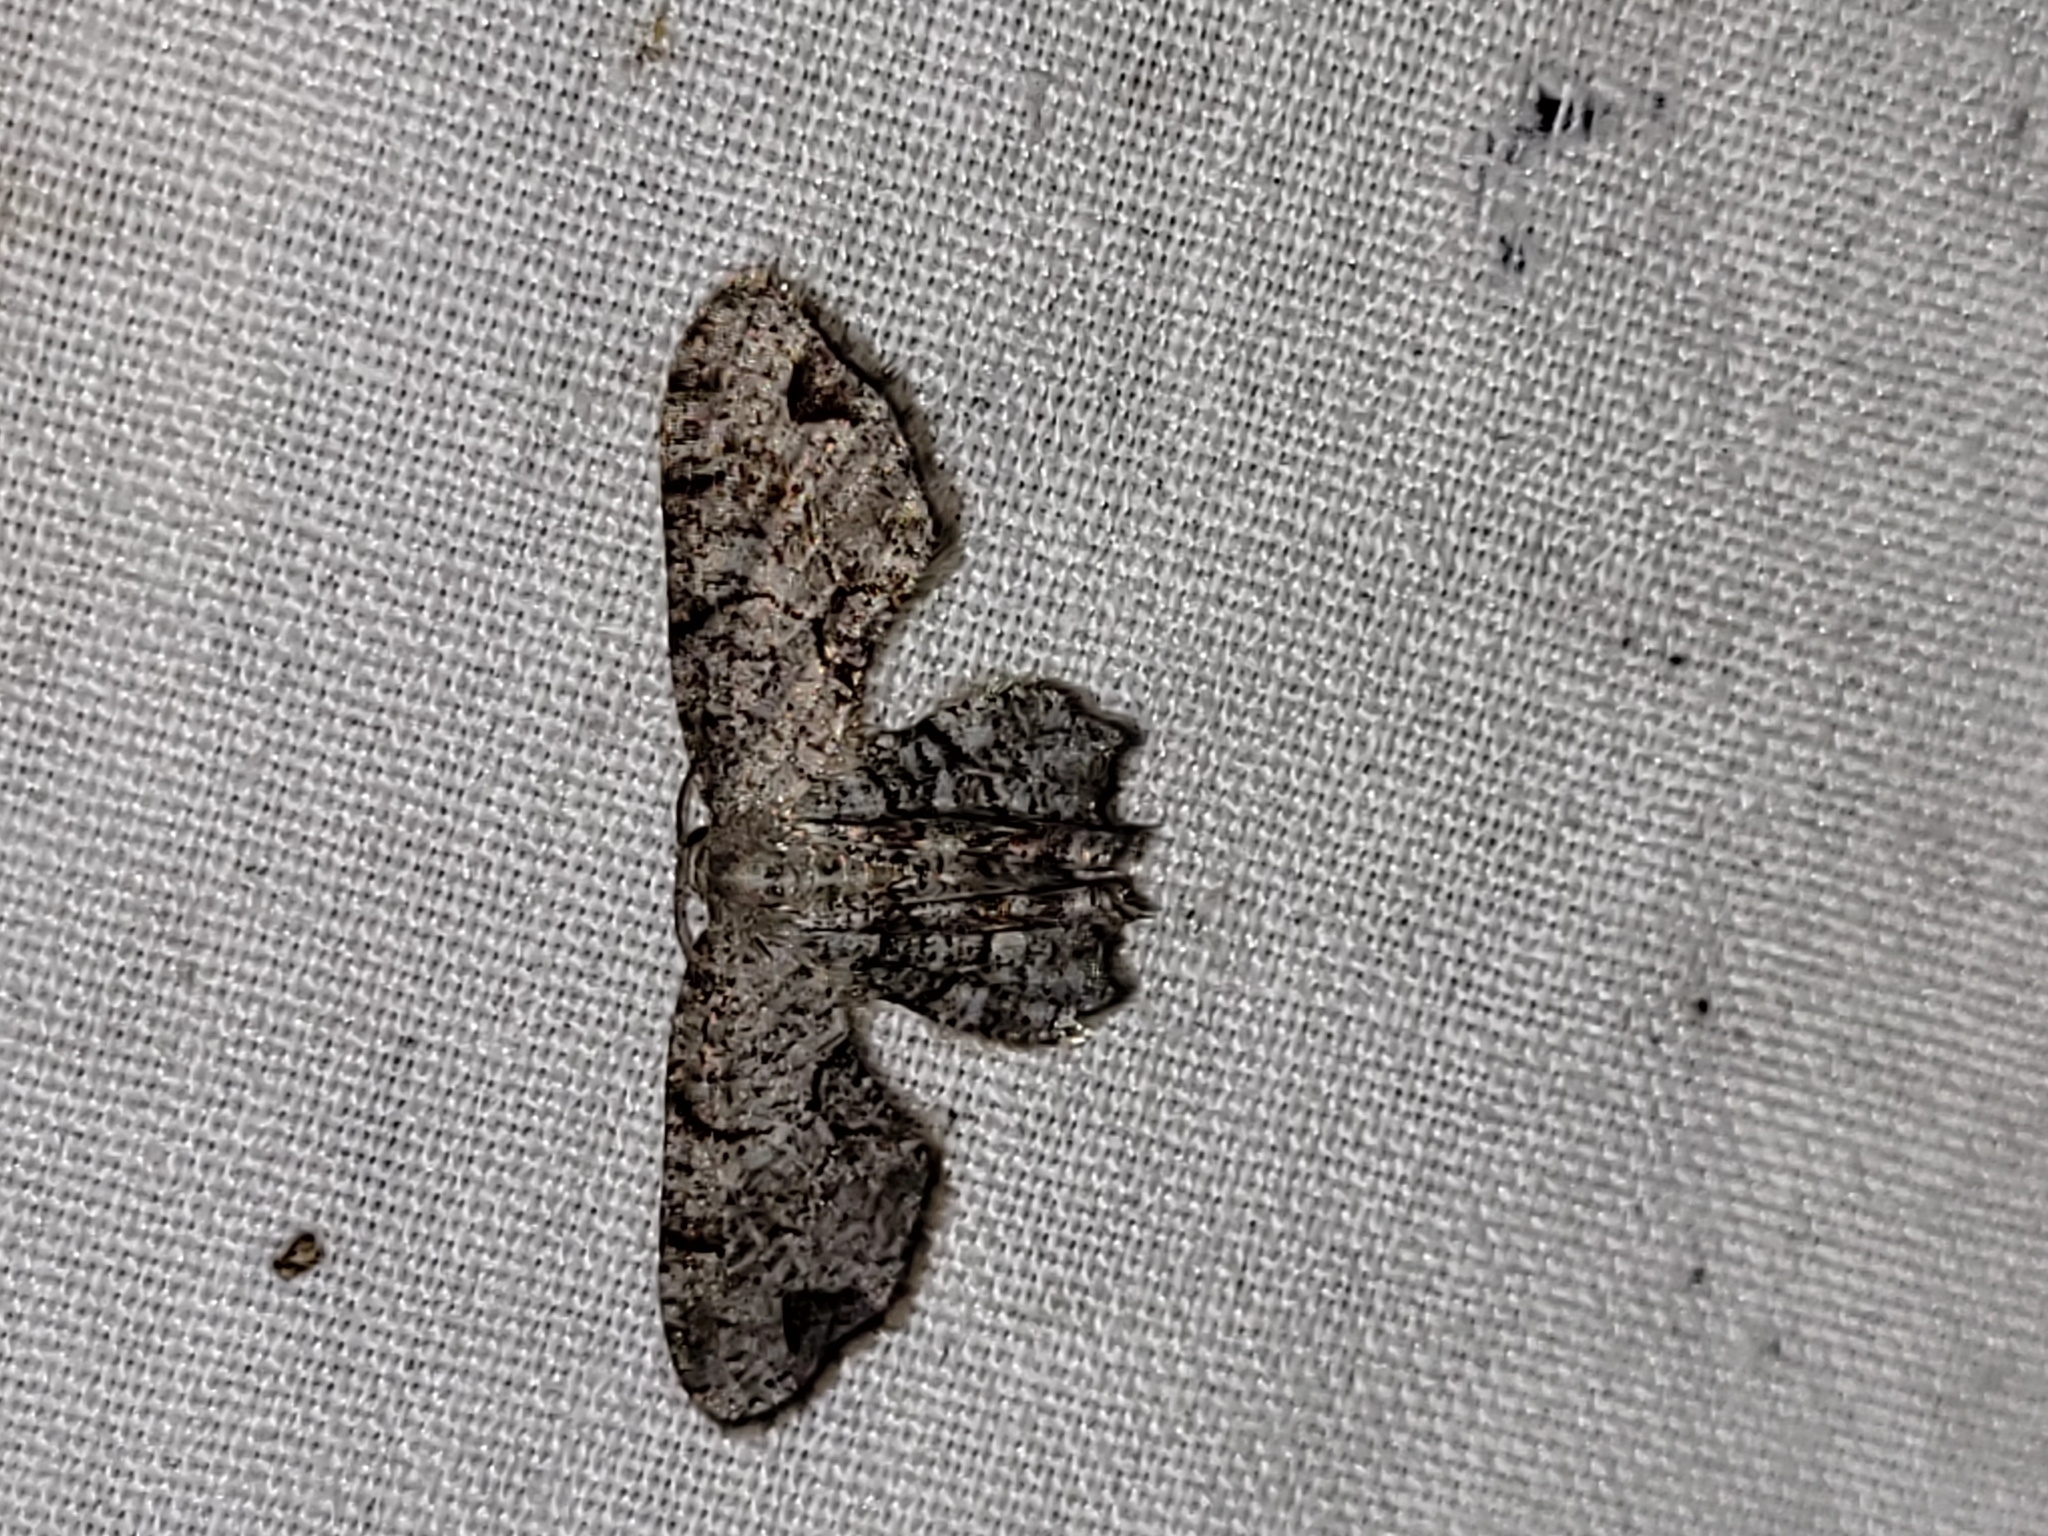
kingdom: Animalia
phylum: Arthropoda
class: Insecta
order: Lepidoptera
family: Uraniidae
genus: Epiplema
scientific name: Epiplema Callizzia amorata
